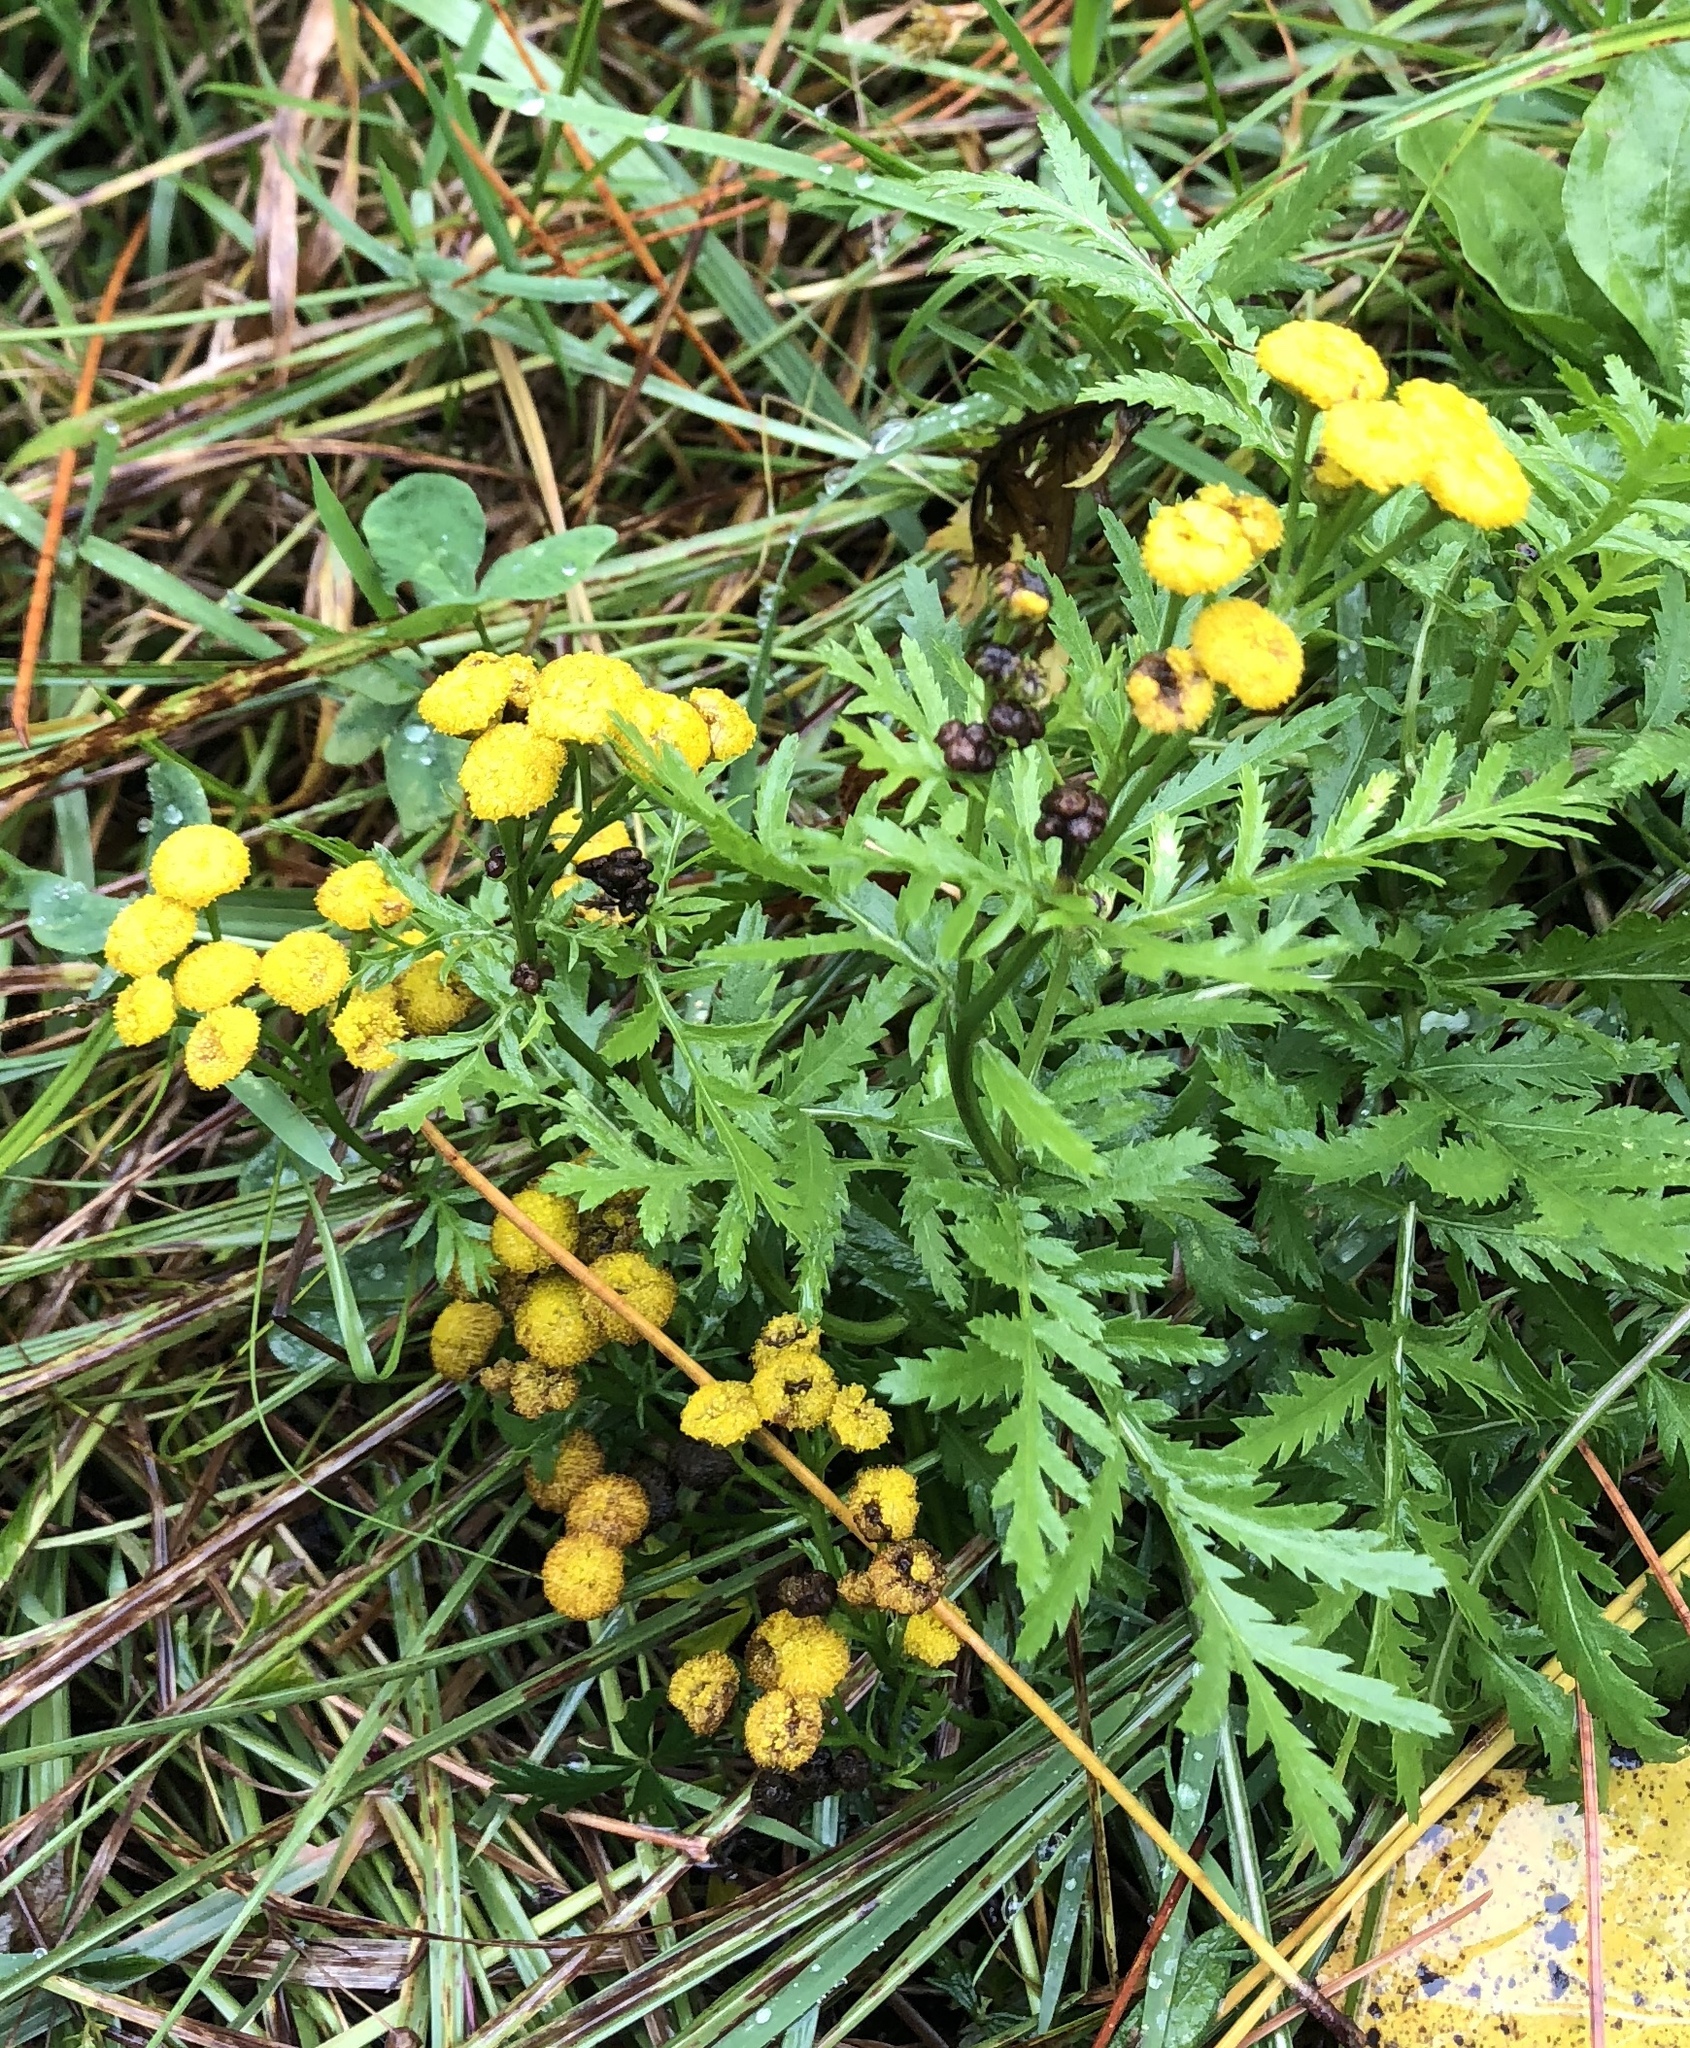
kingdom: Plantae
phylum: Tracheophyta
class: Magnoliopsida
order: Asterales
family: Asteraceae
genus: Tanacetum
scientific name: Tanacetum vulgare
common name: Common tansy
